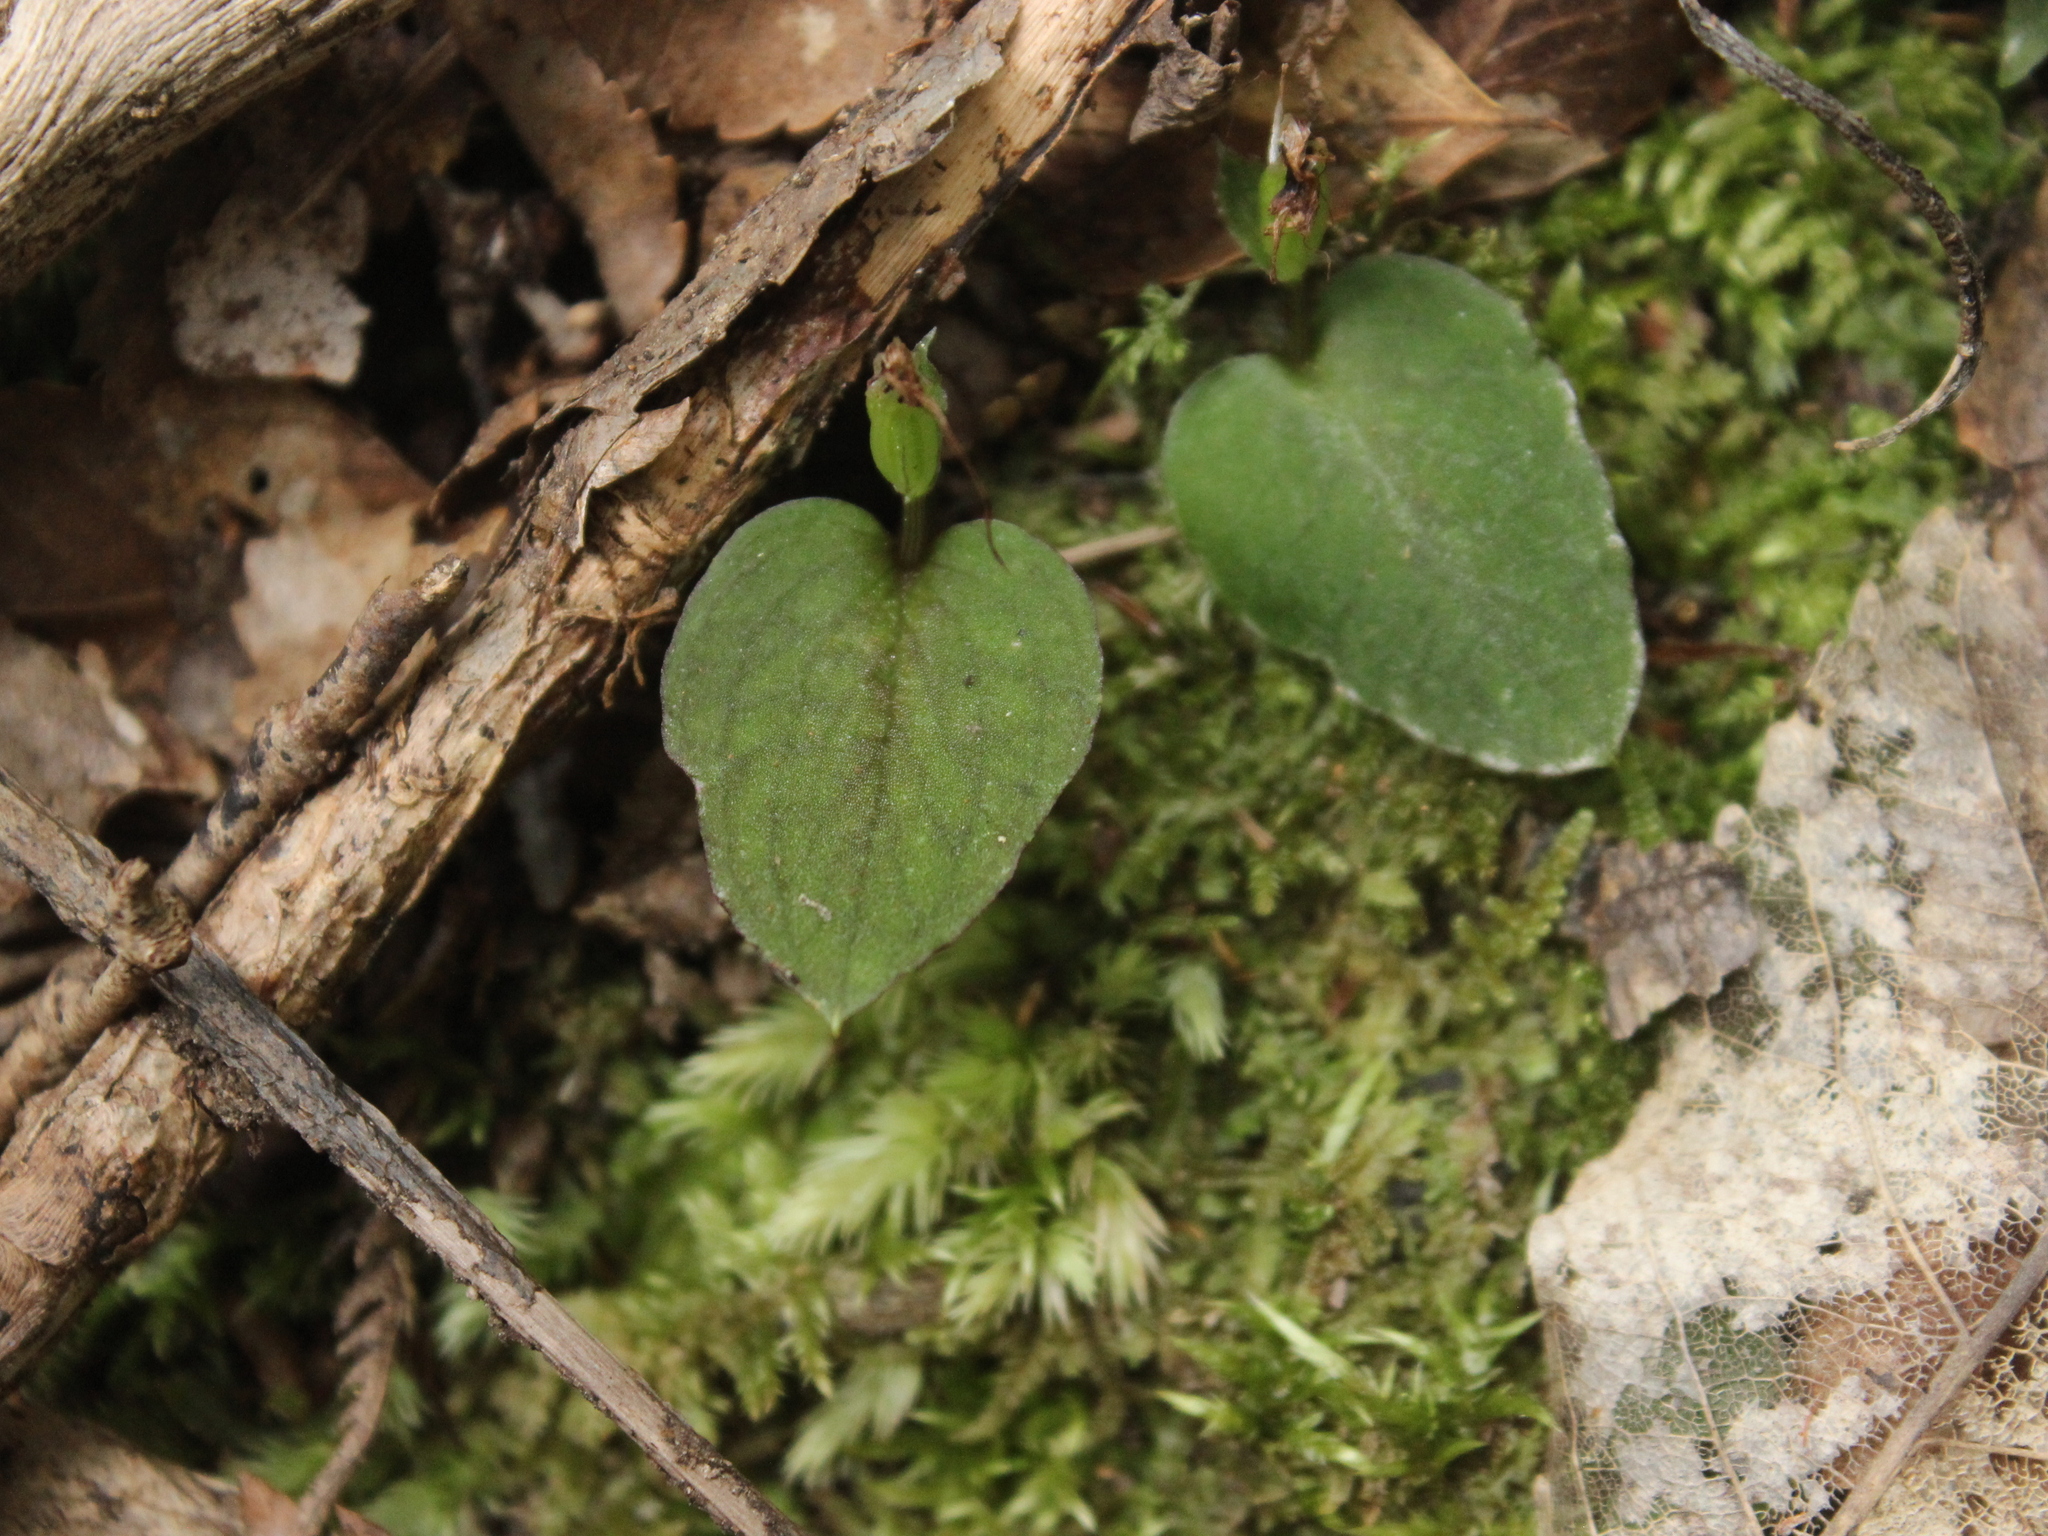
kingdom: Plantae
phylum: Tracheophyta
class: Liliopsida
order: Asparagales
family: Orchidaceae
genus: Corybas
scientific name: Corybas oblongus
